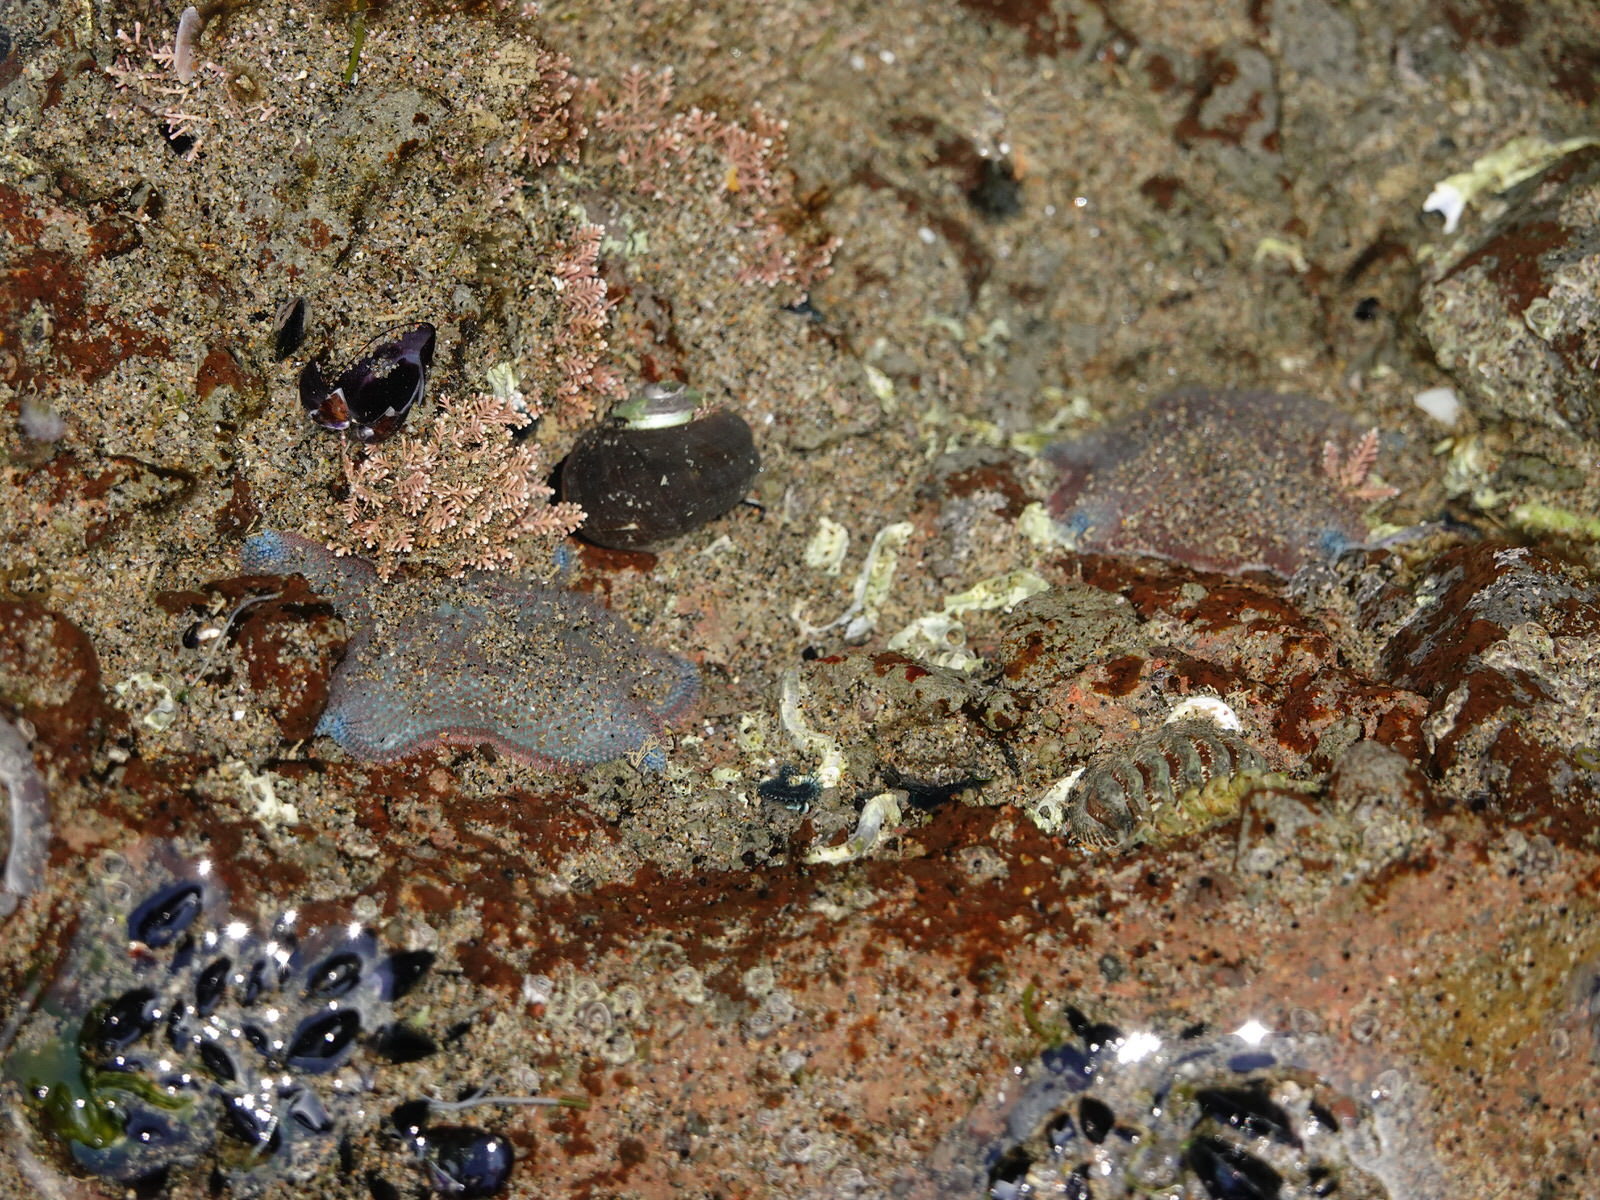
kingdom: Animalia
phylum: Echinodermata
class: Asteroidea
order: Valvatida
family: Asterinidae
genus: Patiriella
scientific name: Patiriella regularis
